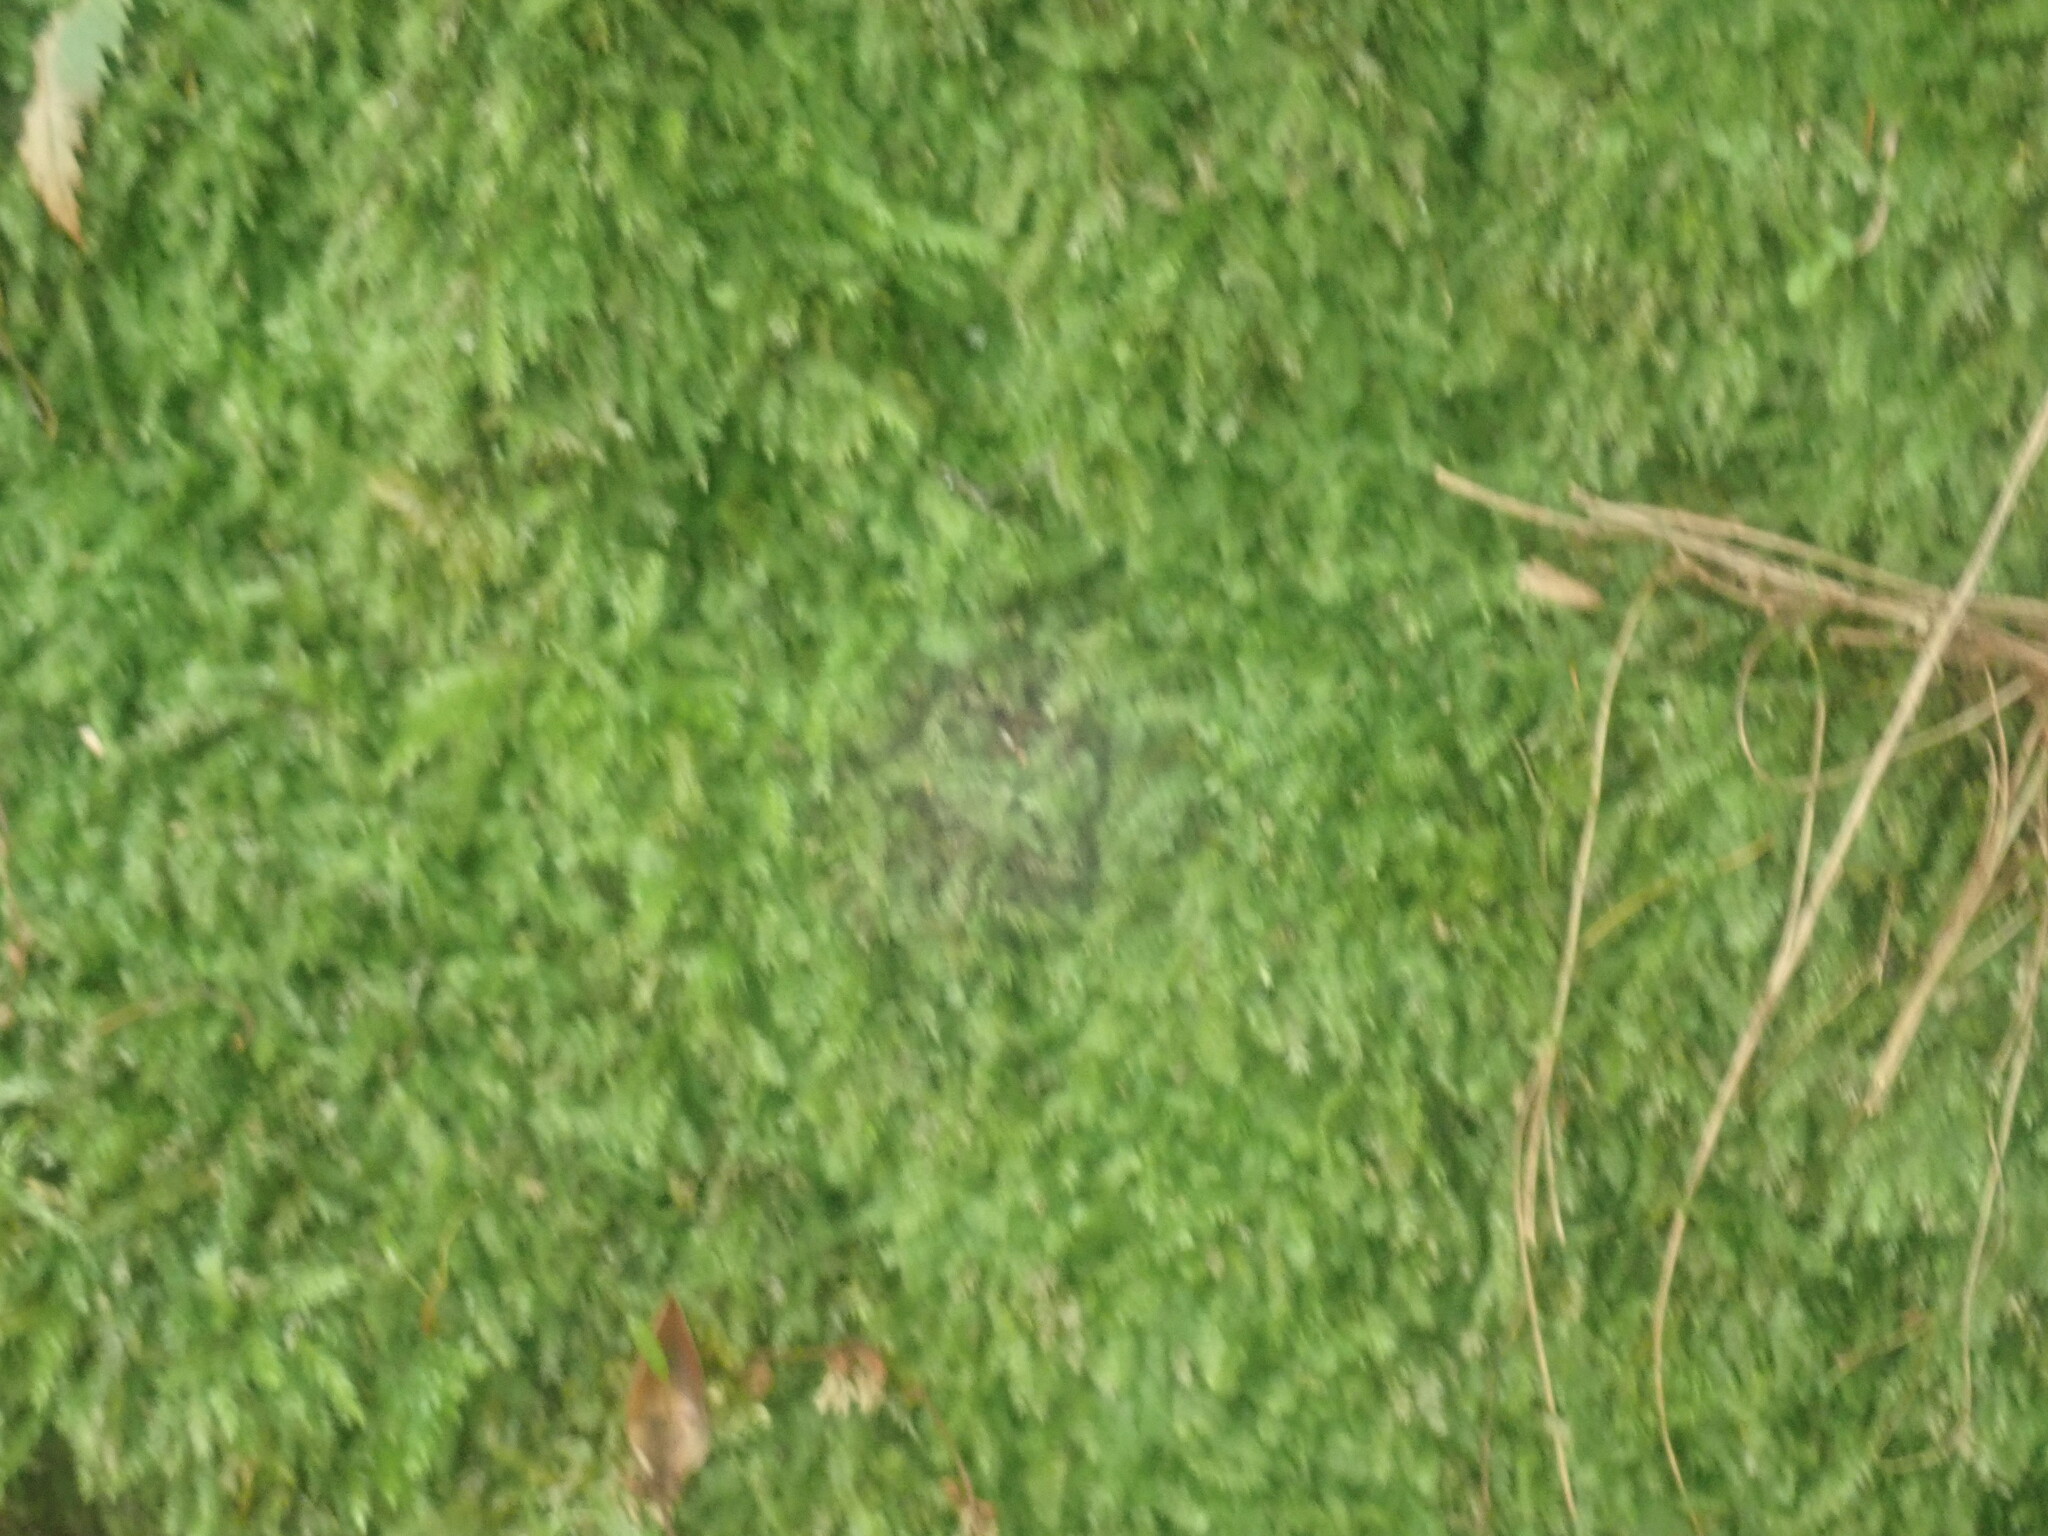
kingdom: Plantae
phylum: Marchantiophyta
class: Jungermanniopsida
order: Jungermanniales
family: Calypogeiaceae
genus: Calypogeia
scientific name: Calypogeia muelleriana
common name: Mueller s pouchwort
